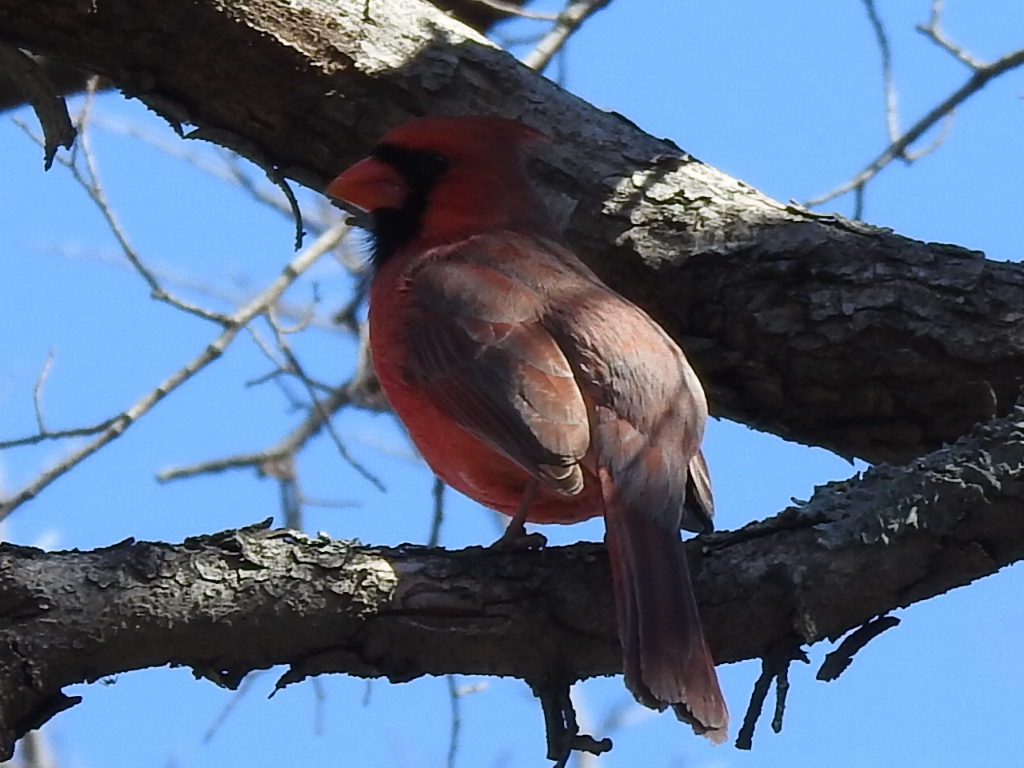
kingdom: Animalia
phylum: Chordata
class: Aves
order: Passeriformes
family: Cardinalidae
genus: Cardinalis
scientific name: Cardinalis cardinalis
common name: Northern cardinal
